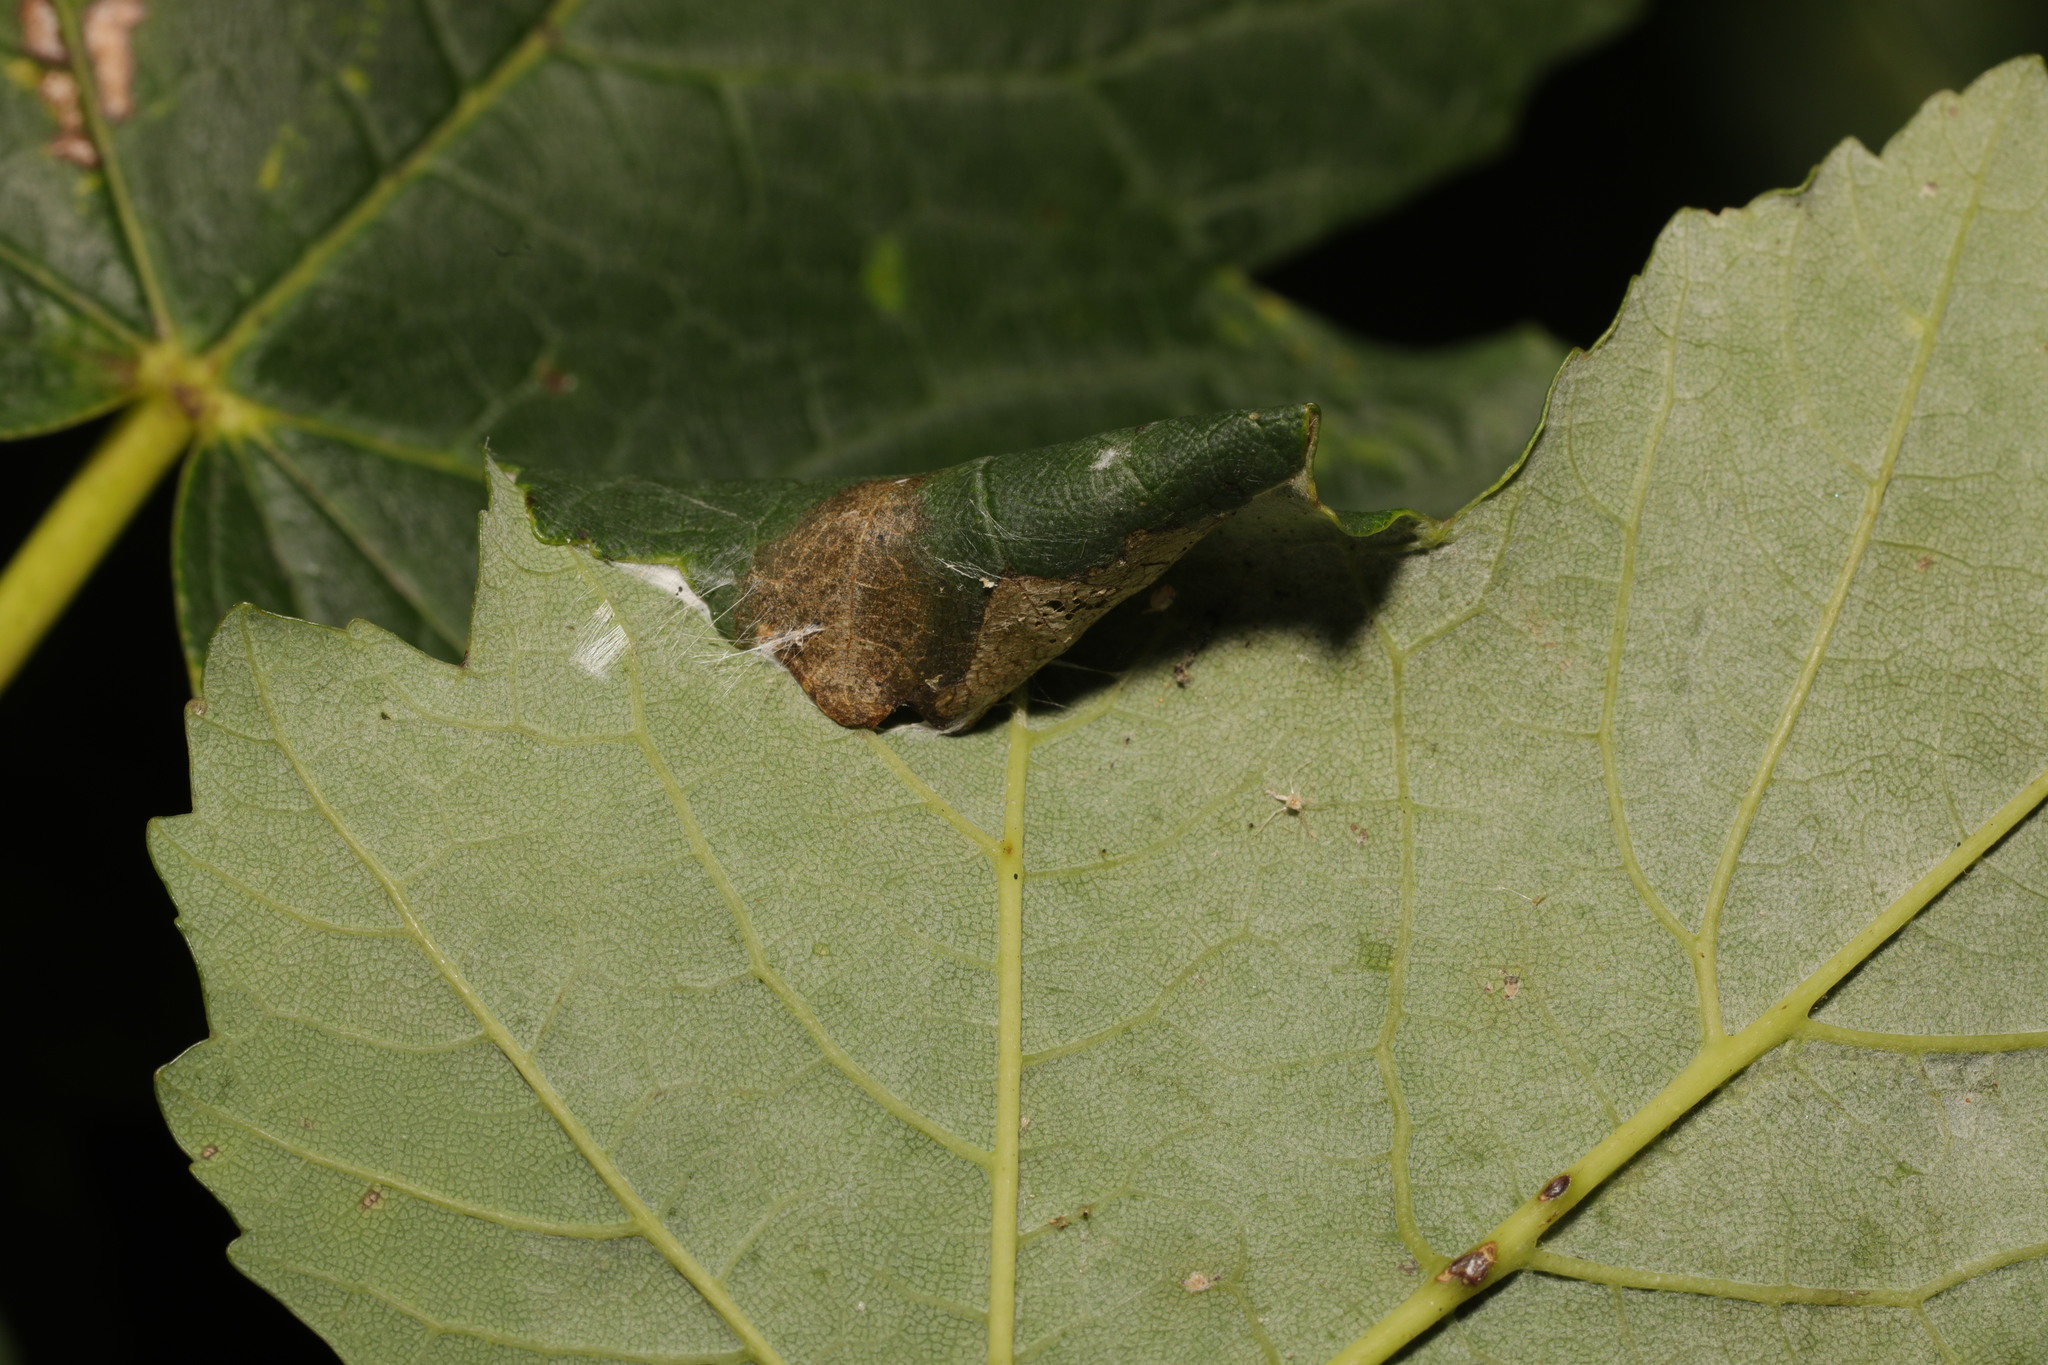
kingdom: Animalia
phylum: Arthropoda
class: Insecta
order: Lepidoptera
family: Gracillariidae
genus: Caloptilia
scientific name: Caloptilia rufipennella
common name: Small red slender
